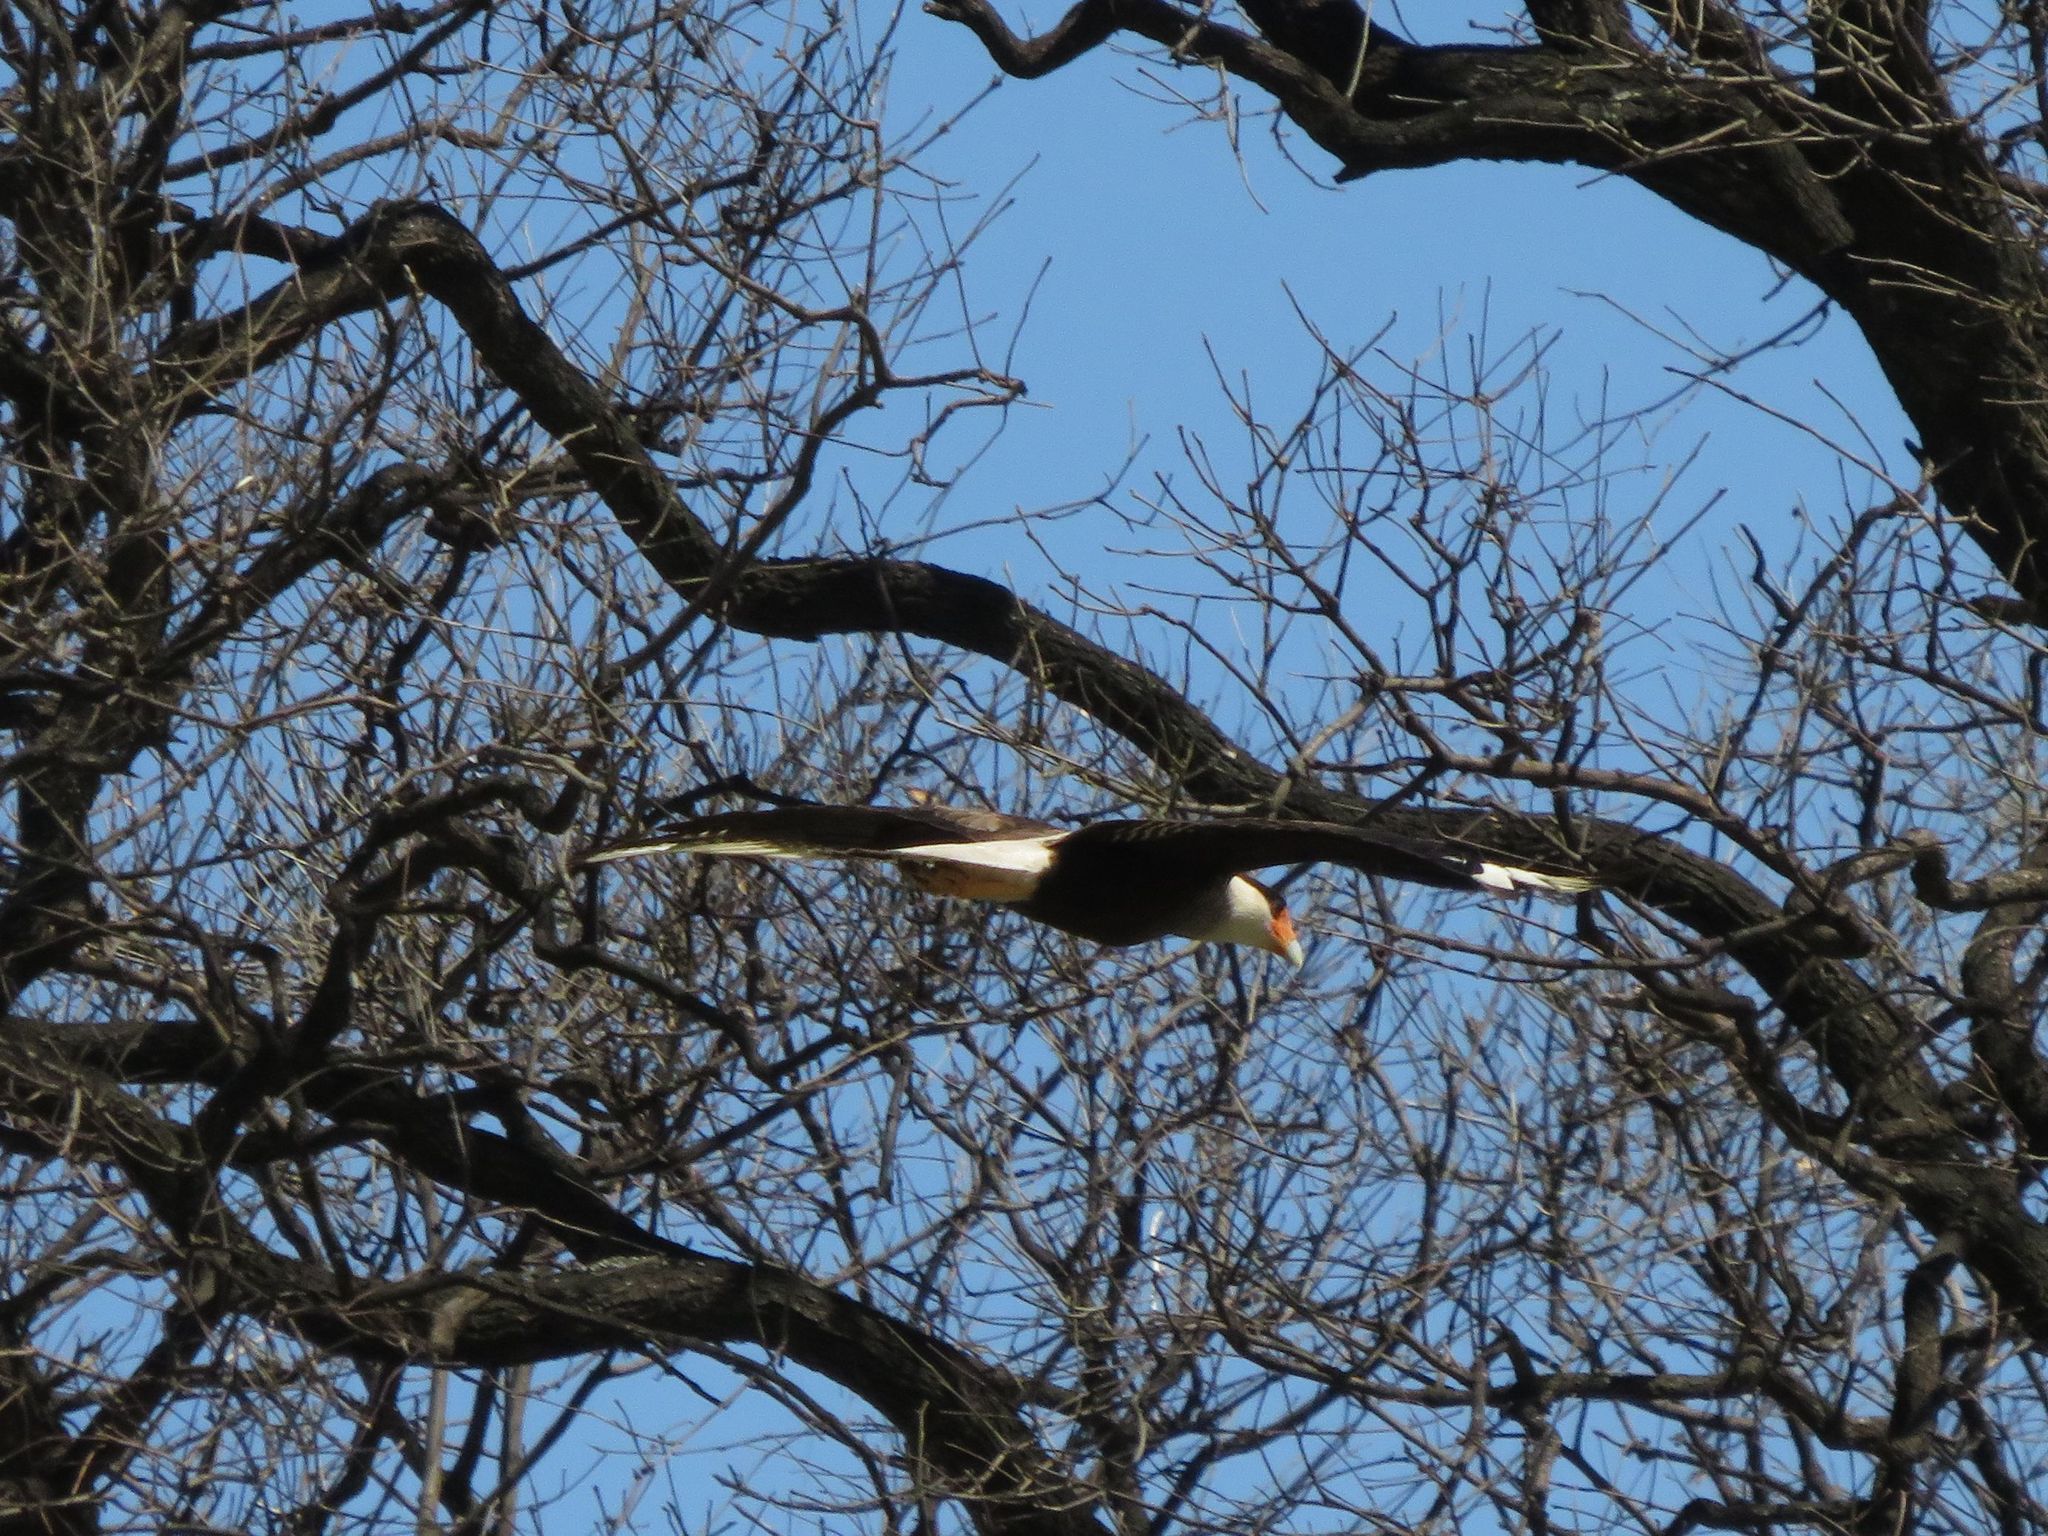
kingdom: Animalia
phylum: Chordata
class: Aves
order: Falconiformes
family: Falconidae
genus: Caracara
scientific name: Caracara plancus
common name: Southern caracara
